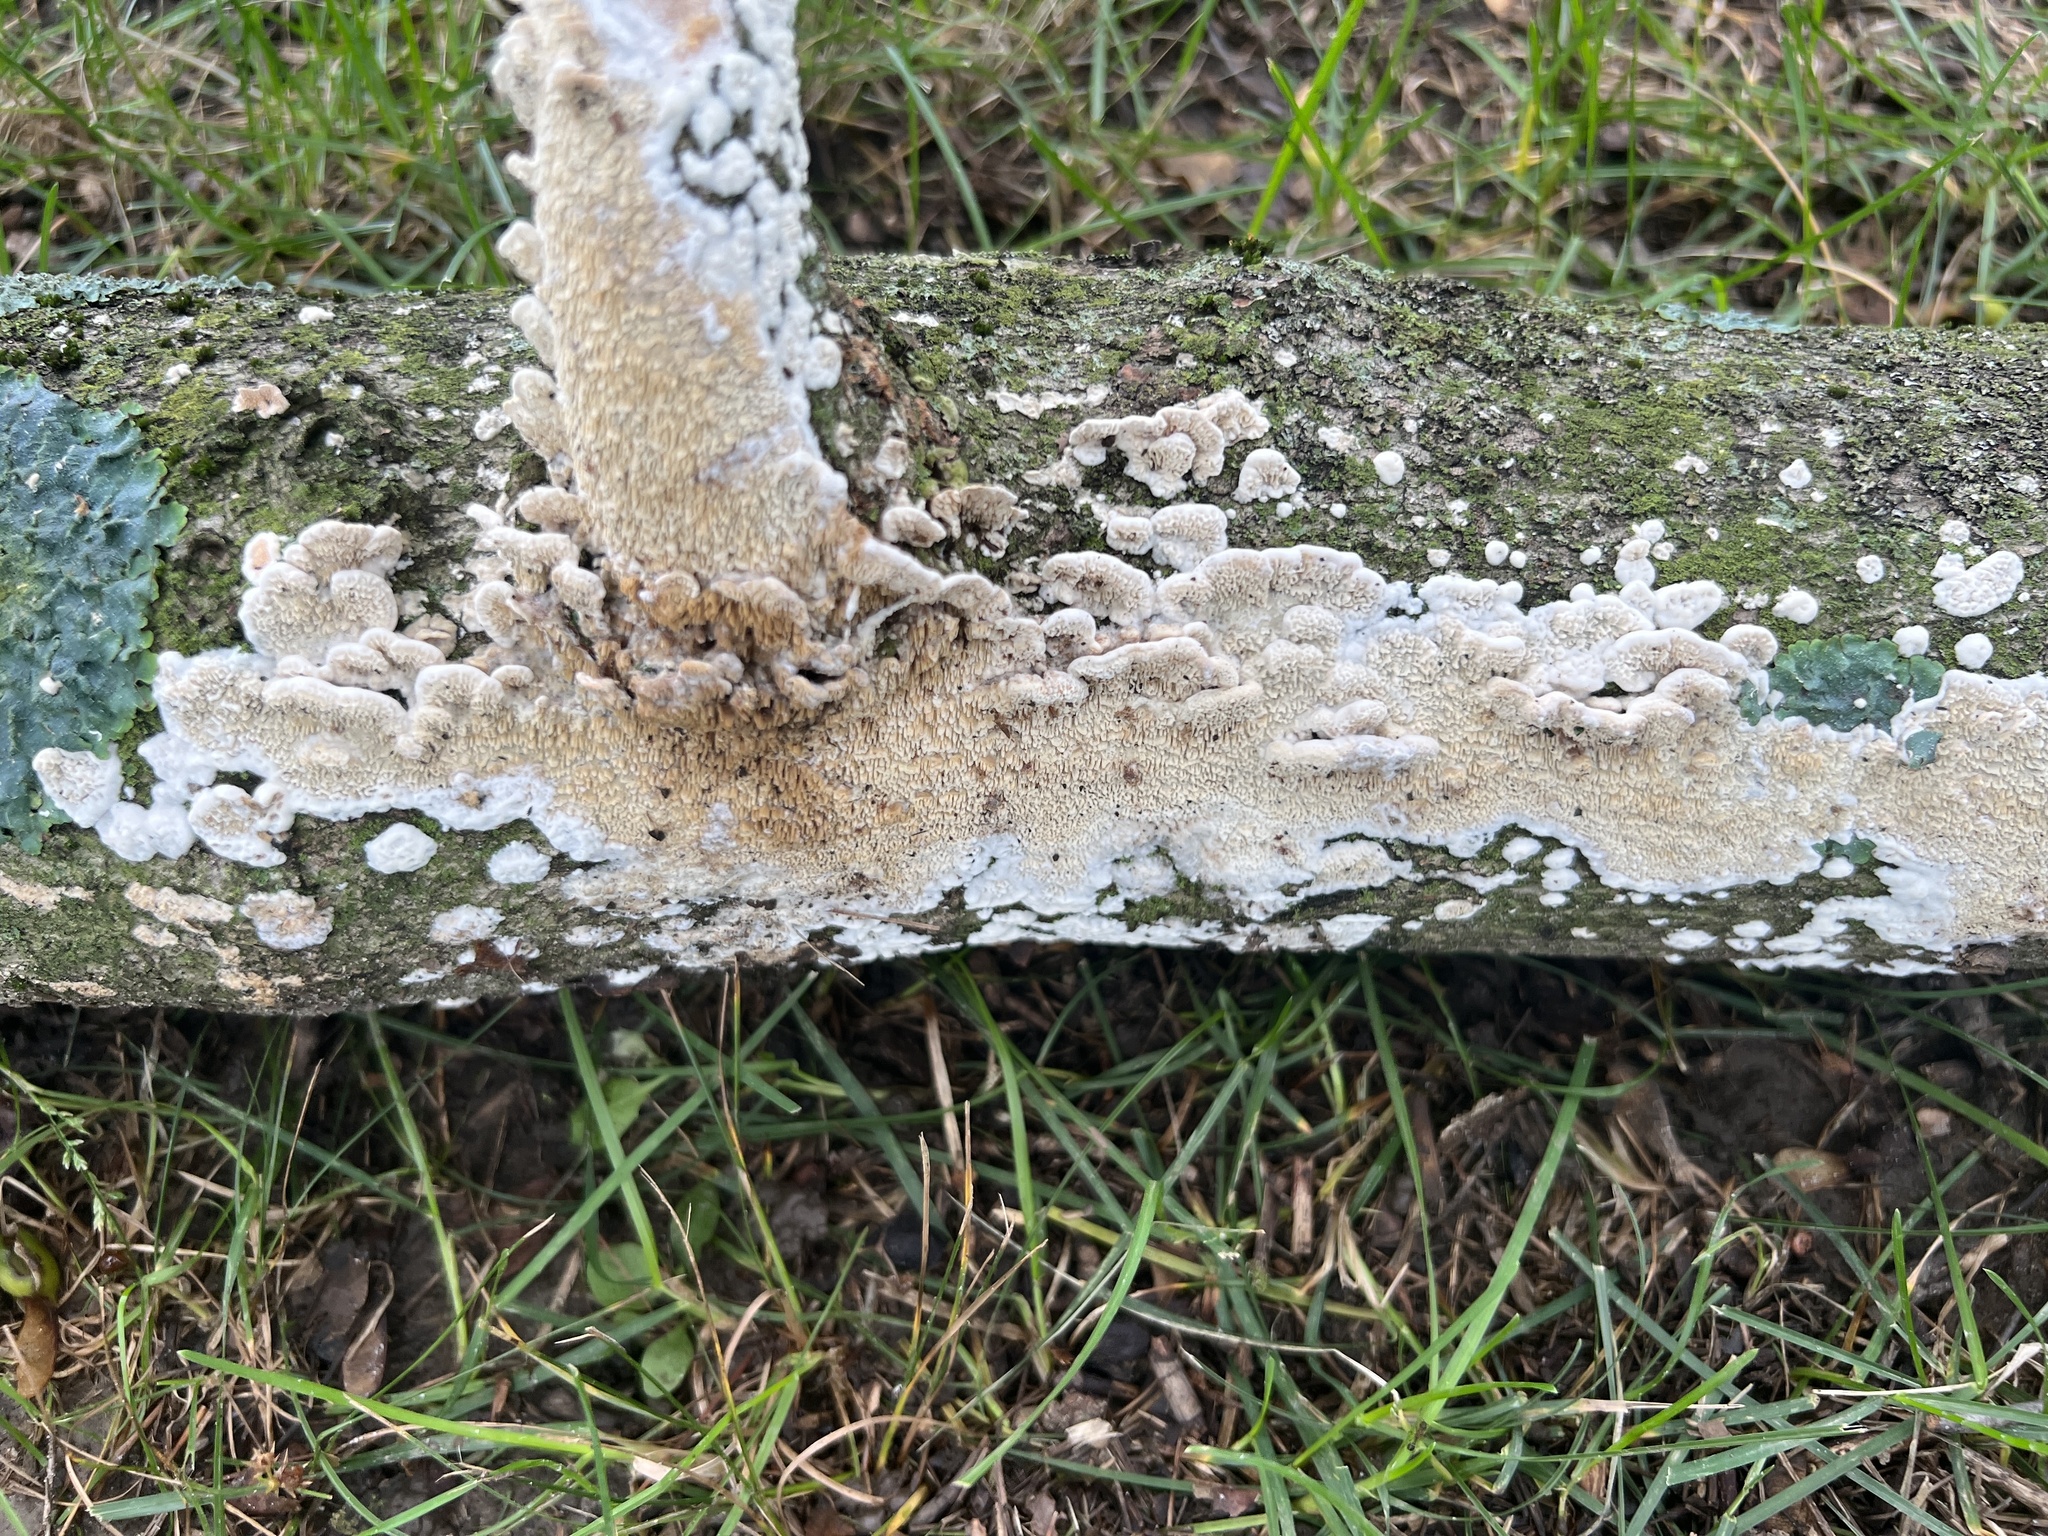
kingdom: Fungi
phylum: Basidiomycota
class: Agaricomycetes
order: Hymenochaetales
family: Schizoporaceae
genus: Xylodon
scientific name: Xylodon radula
